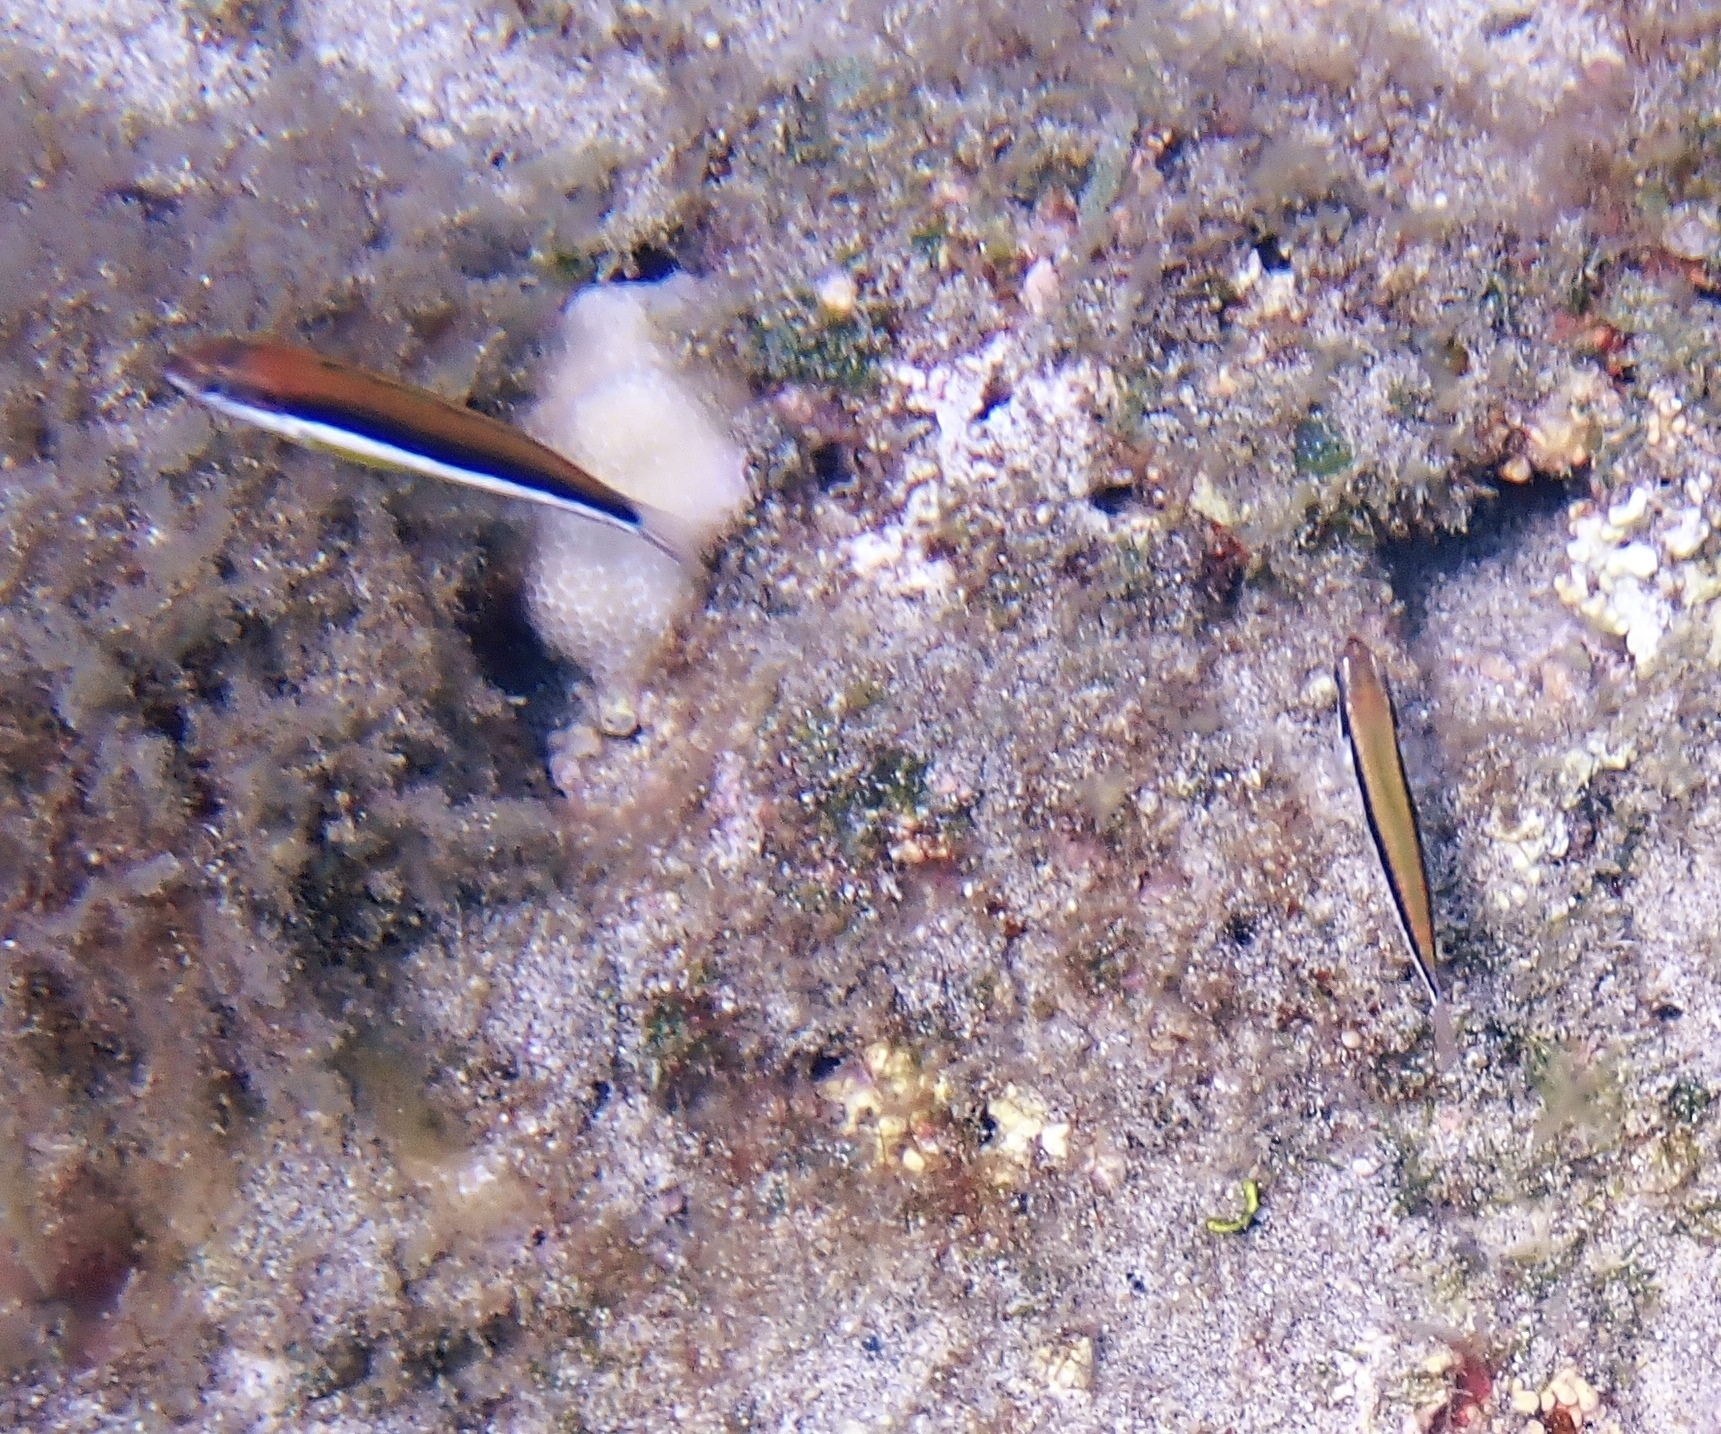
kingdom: Animalia
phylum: Chordata
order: Perciformes
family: Labridae
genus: Thalassoma
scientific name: Thalassoma duperrey
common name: Saddle wrasse
